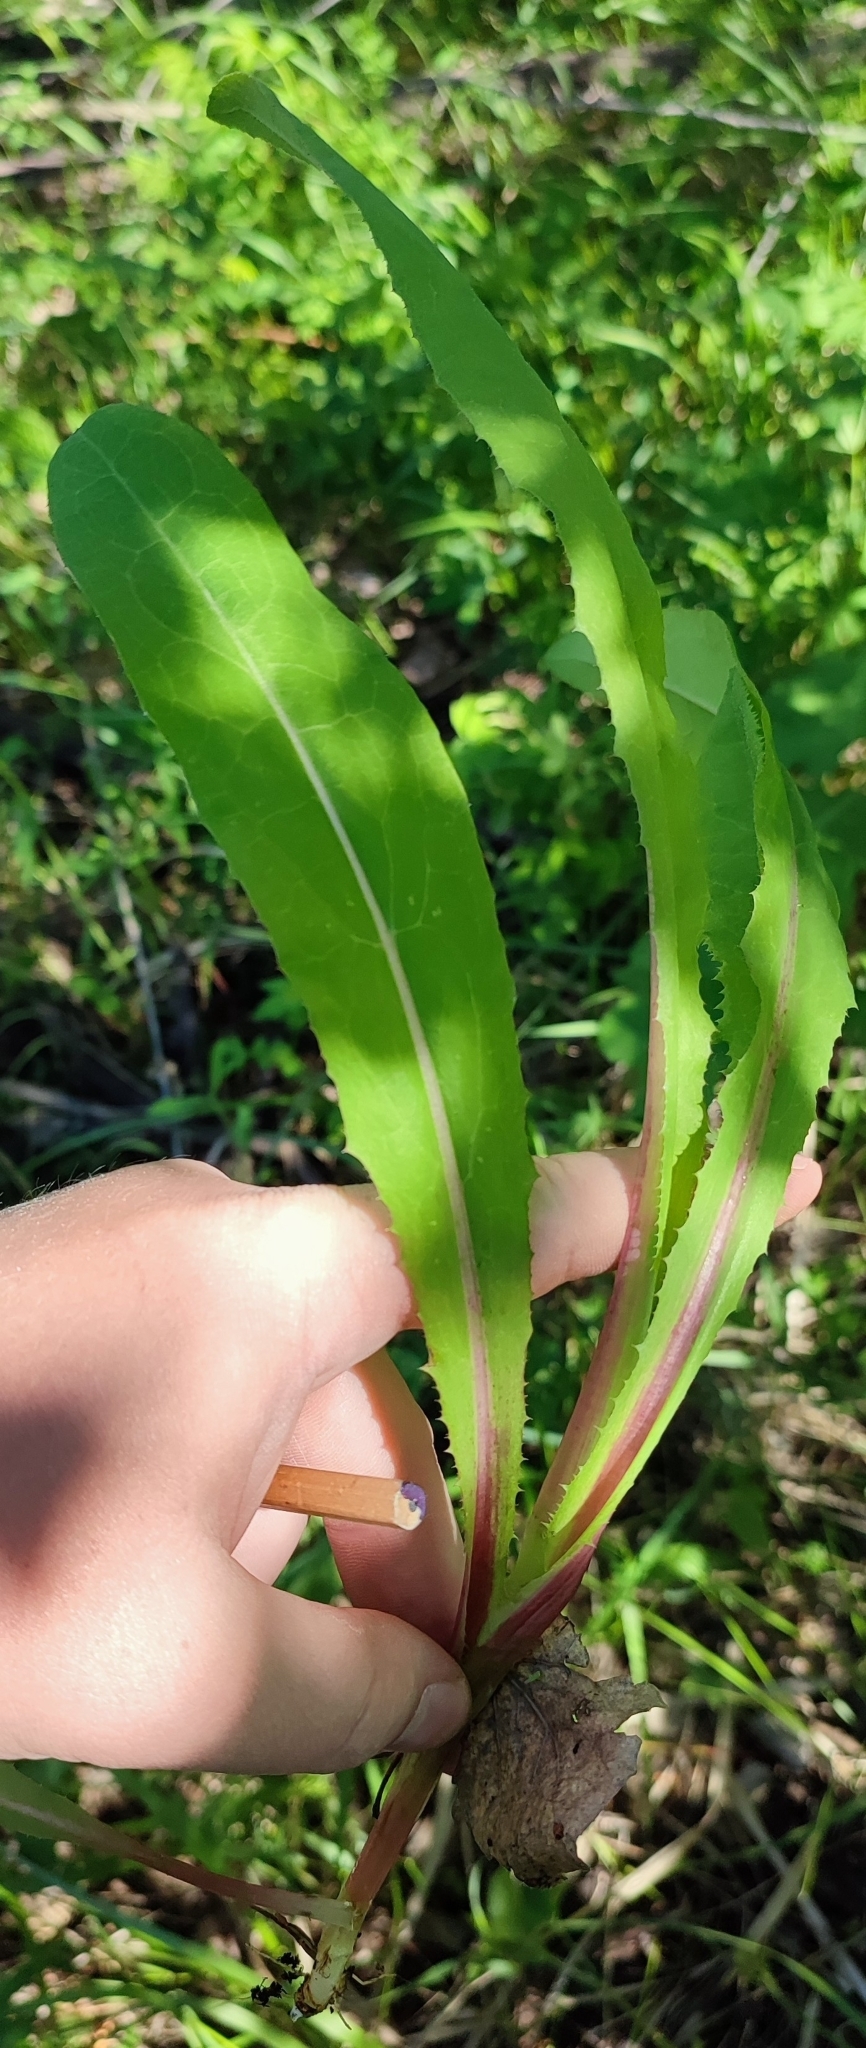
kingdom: Plantae
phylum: Tracheophyta
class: Magnoliopsida
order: Asterales
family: Asteraceae
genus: Sonchus
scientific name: Sonchus arvensis
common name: Perennial sow-thistle
